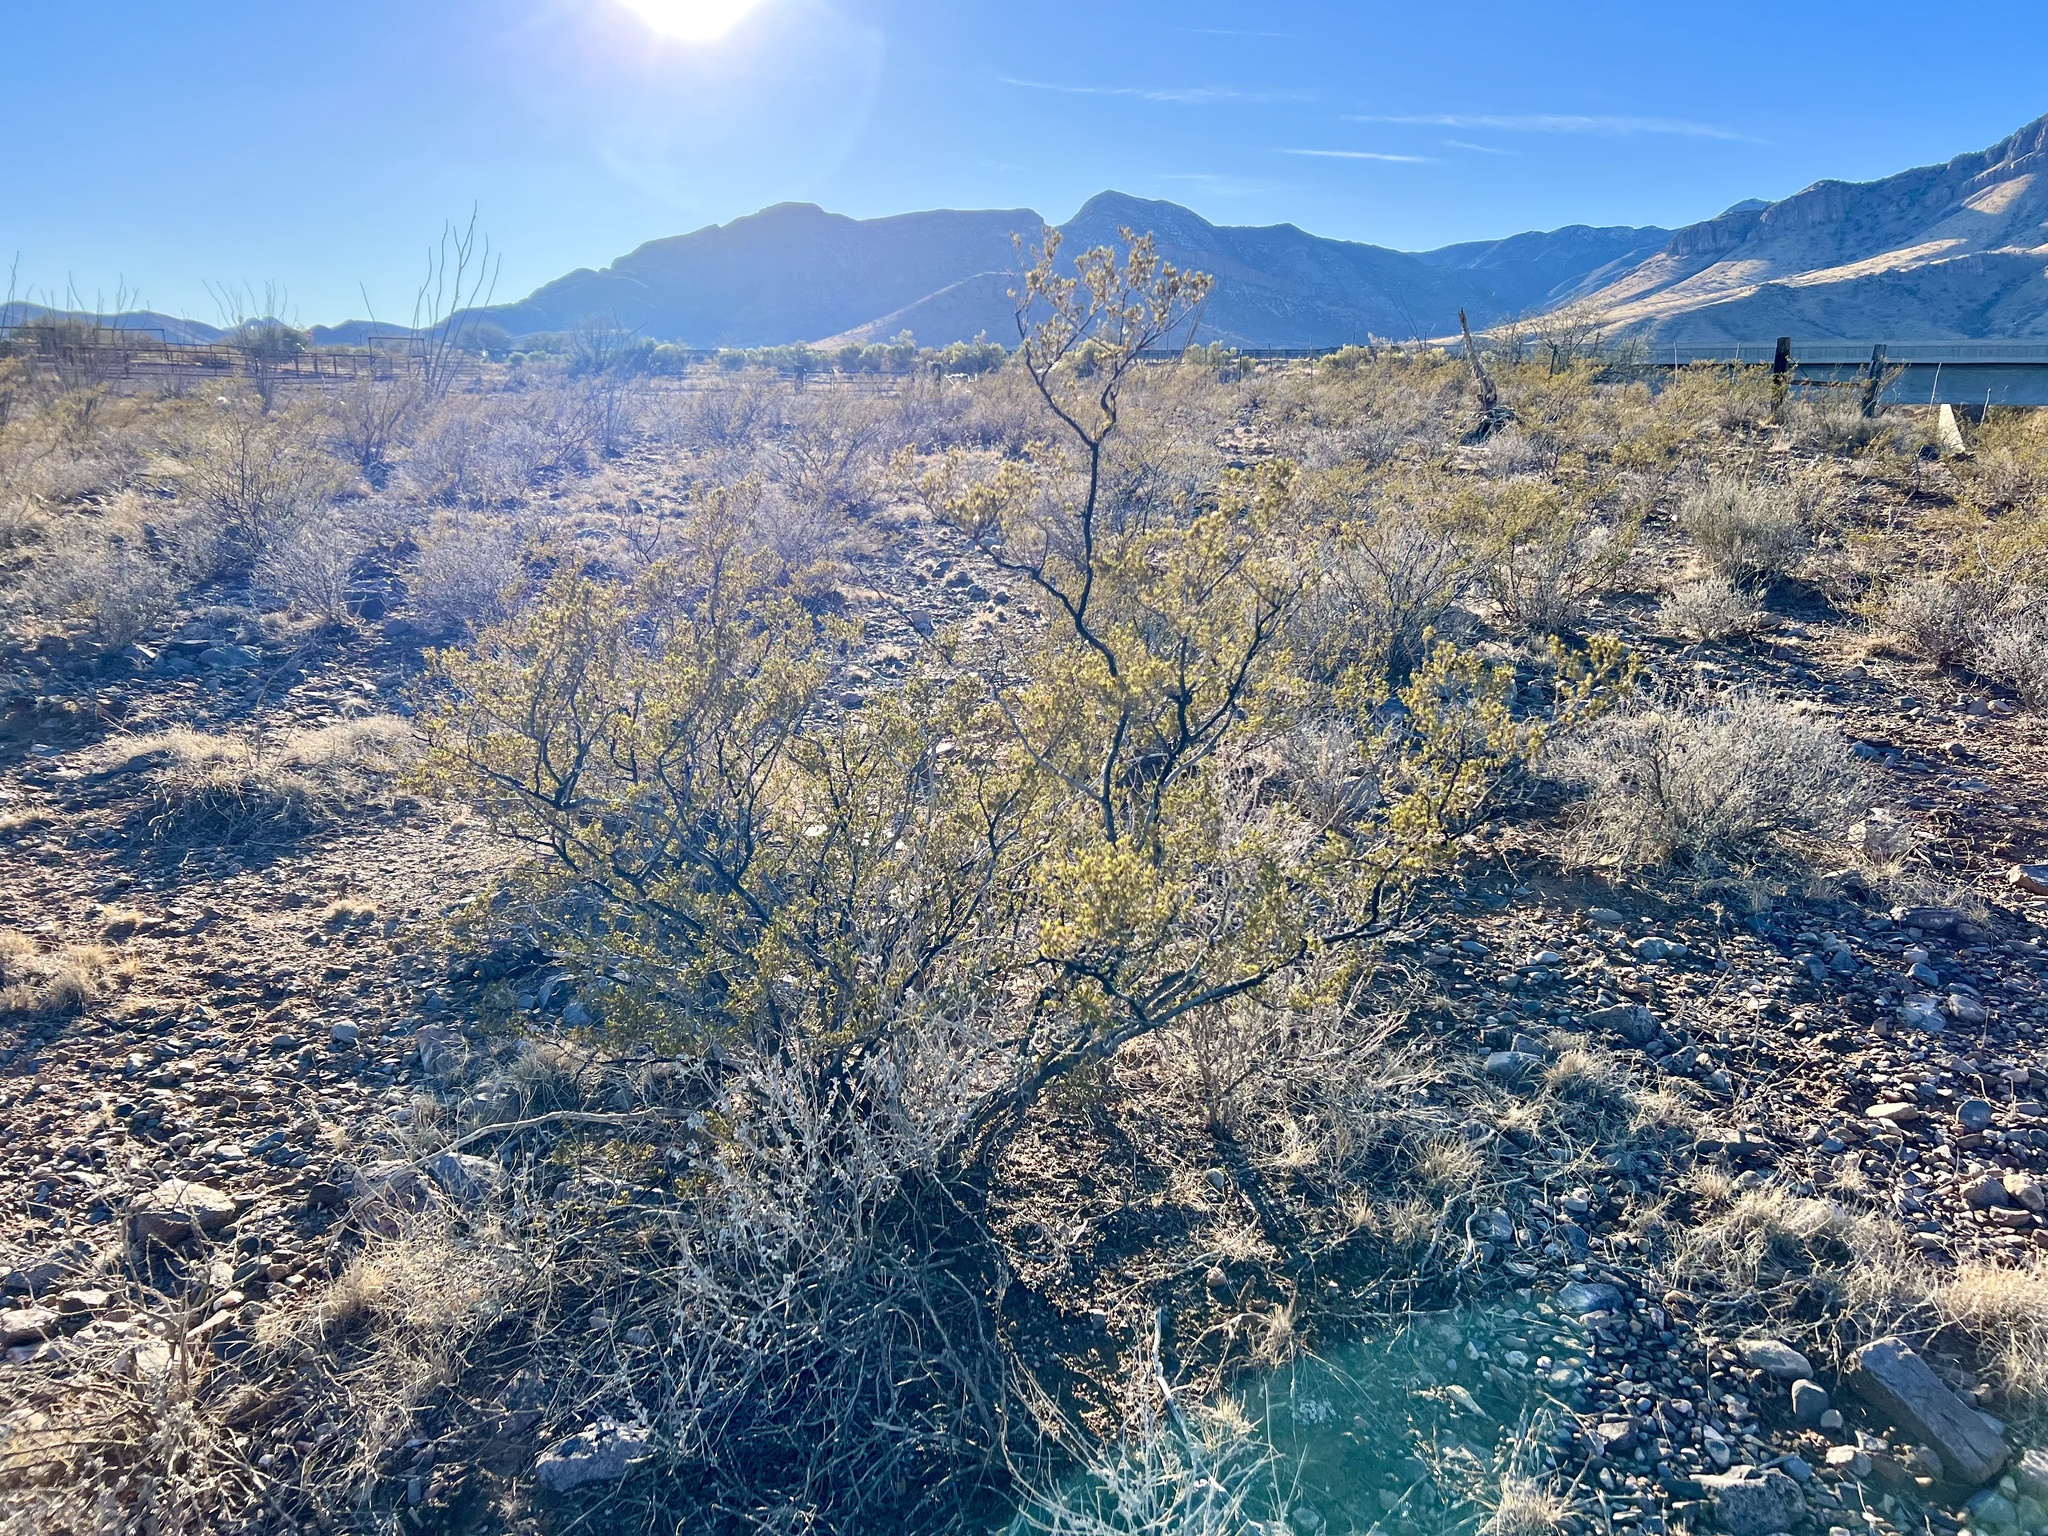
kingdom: Plantae
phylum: Tracheophyta
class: Magnoliopsida
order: Zygophyllales
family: Zygophyllaceae
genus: Larrea
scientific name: Larrea tridentata
